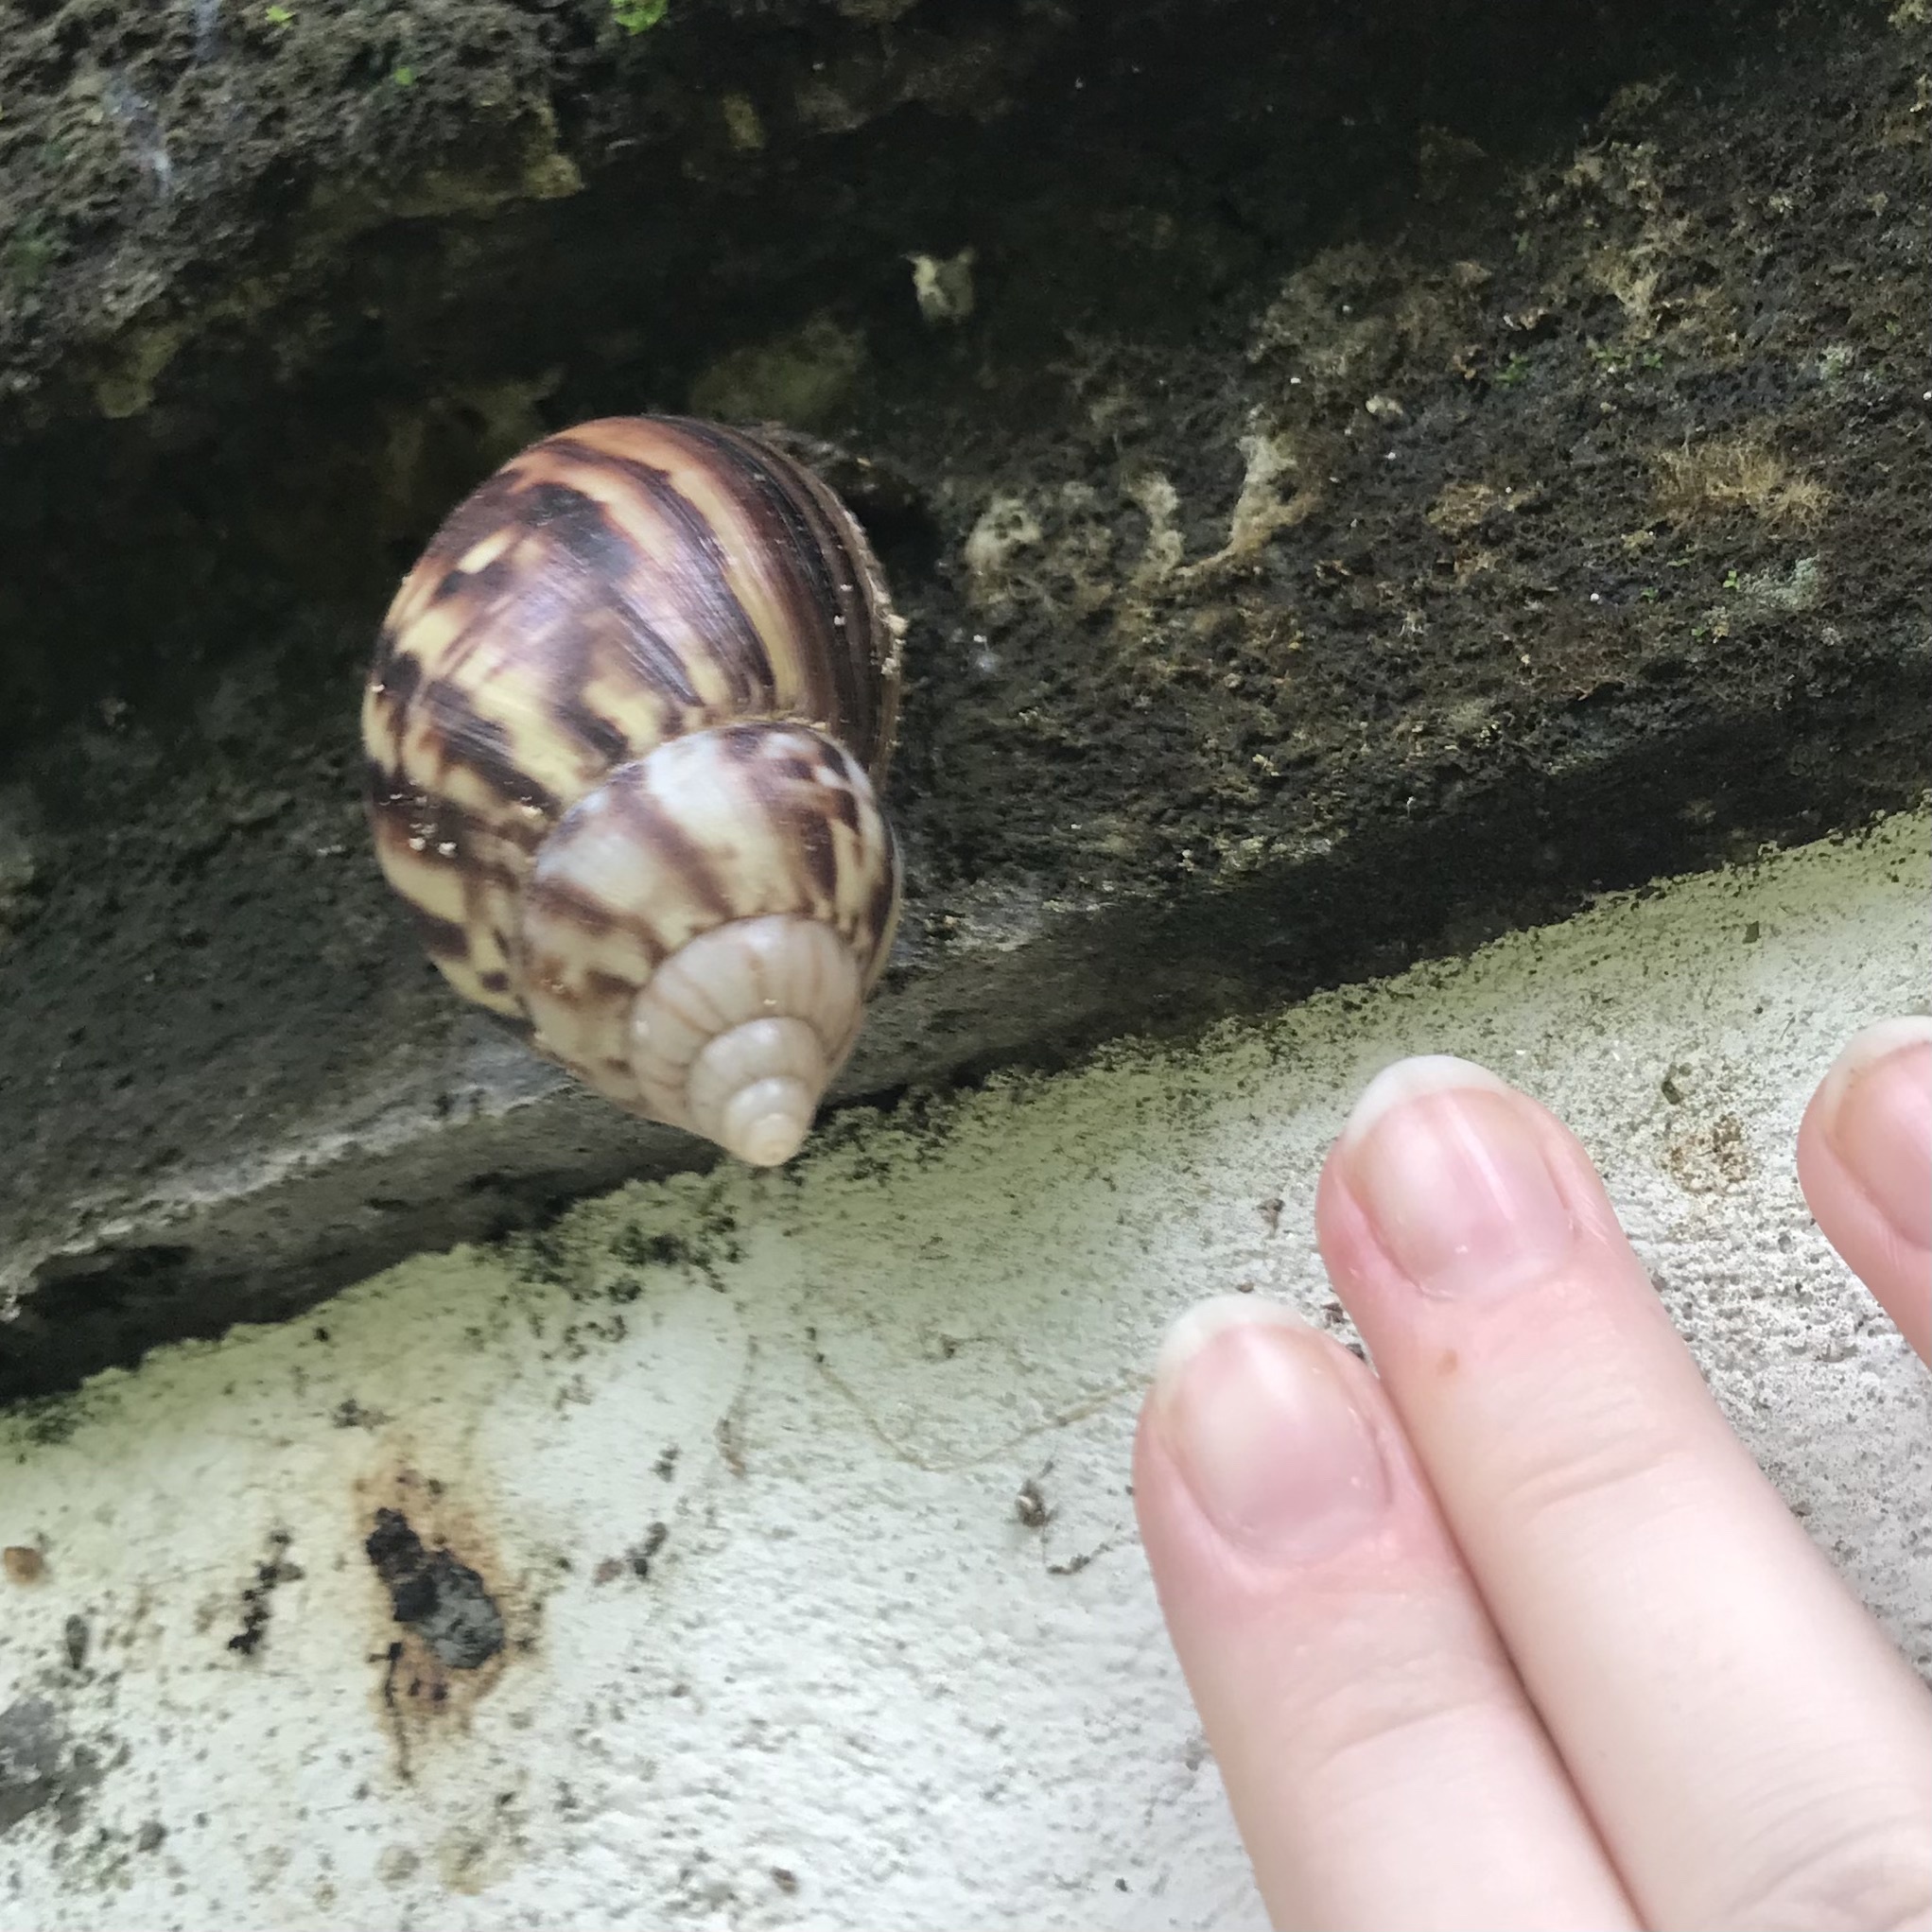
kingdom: Animalia
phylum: Mollusca
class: Gastropoda
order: Stylommatophora
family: Achatinidae
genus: Lissachatina
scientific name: Lissachatina fulica
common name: Giant african snail
